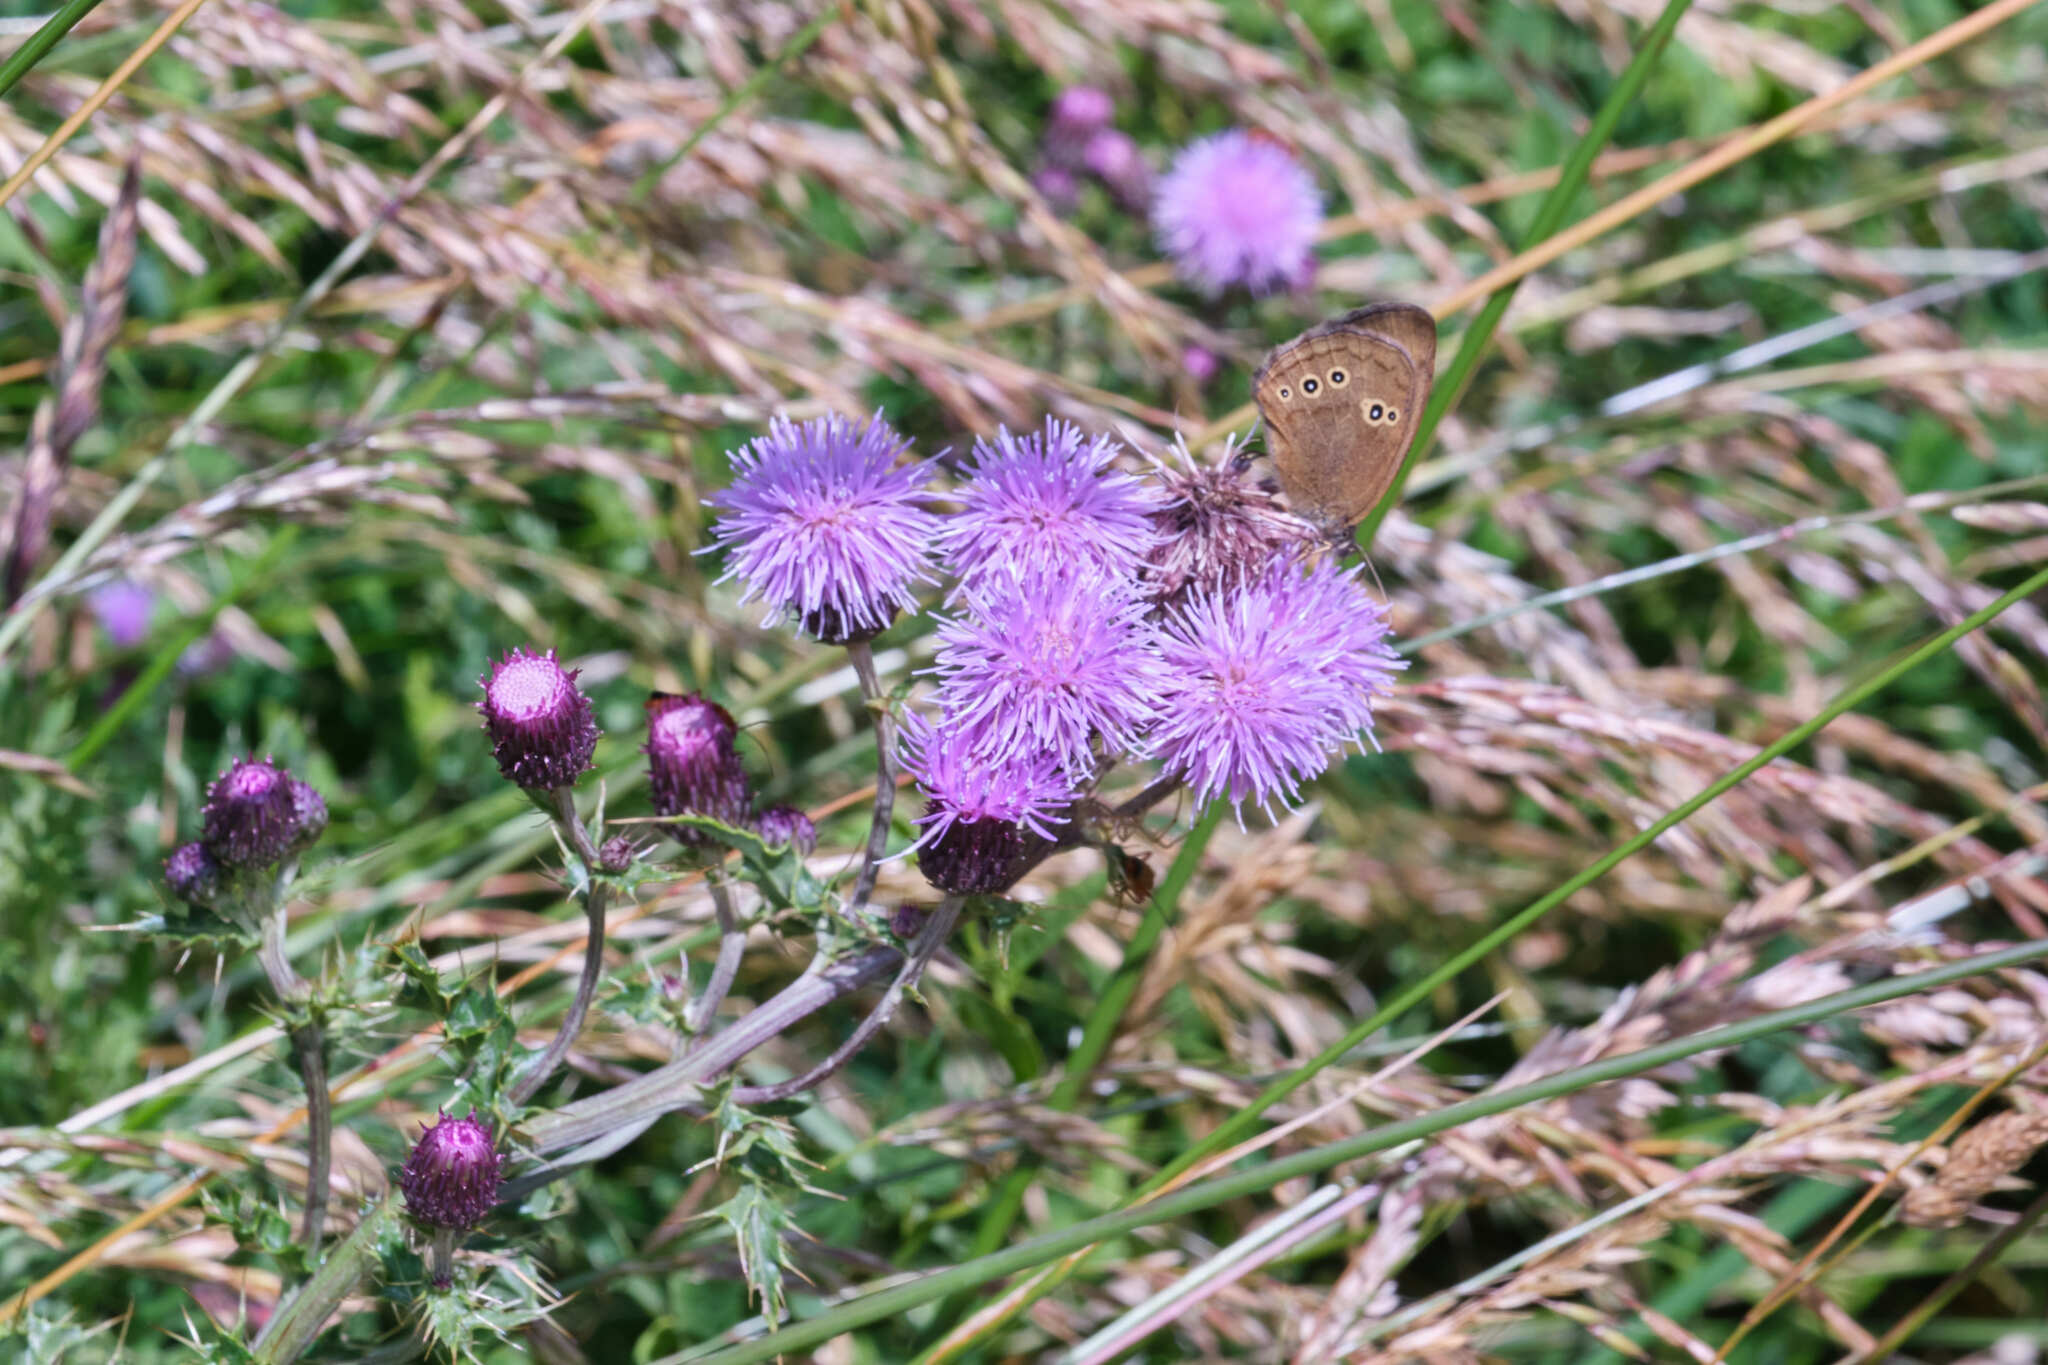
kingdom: Animalia
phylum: Arthropoda
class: Insecta
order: Lepidoptera
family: Nymphalidae
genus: Aphantopus
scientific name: Aphantopus hyperantus
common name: Ringlet
